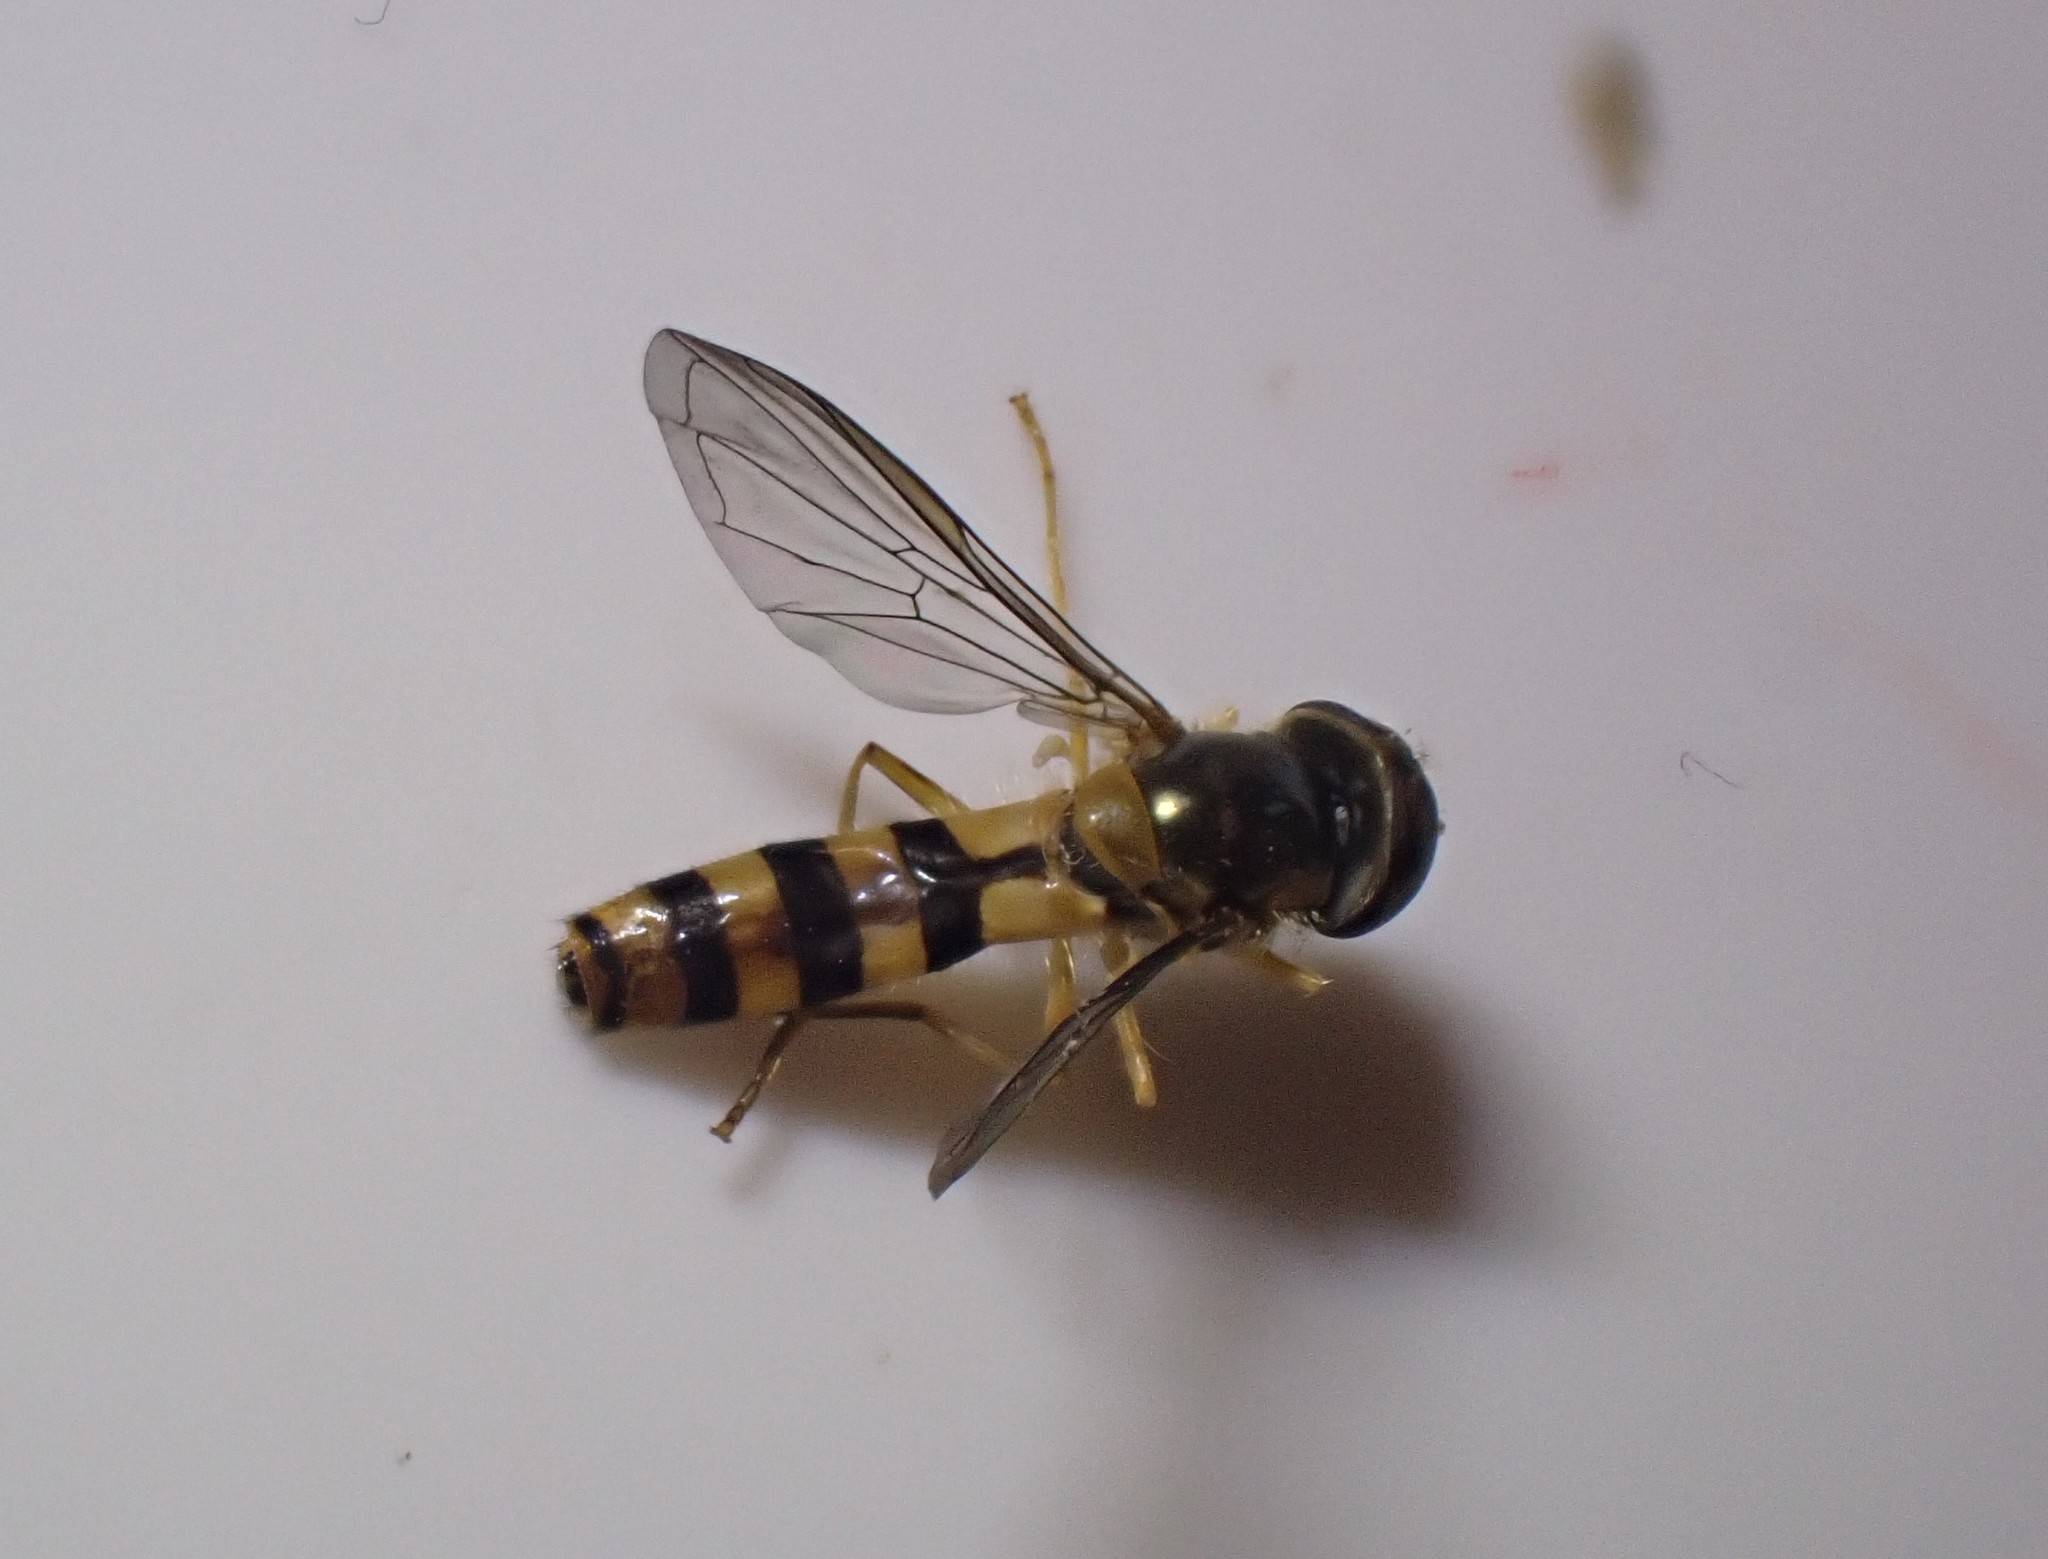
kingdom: Animalia
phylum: Arthropoda
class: Insecta
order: Diptera
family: Syrphidae
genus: Meliscaeva
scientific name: Meliscaeva cinctella
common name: American thintail fly
